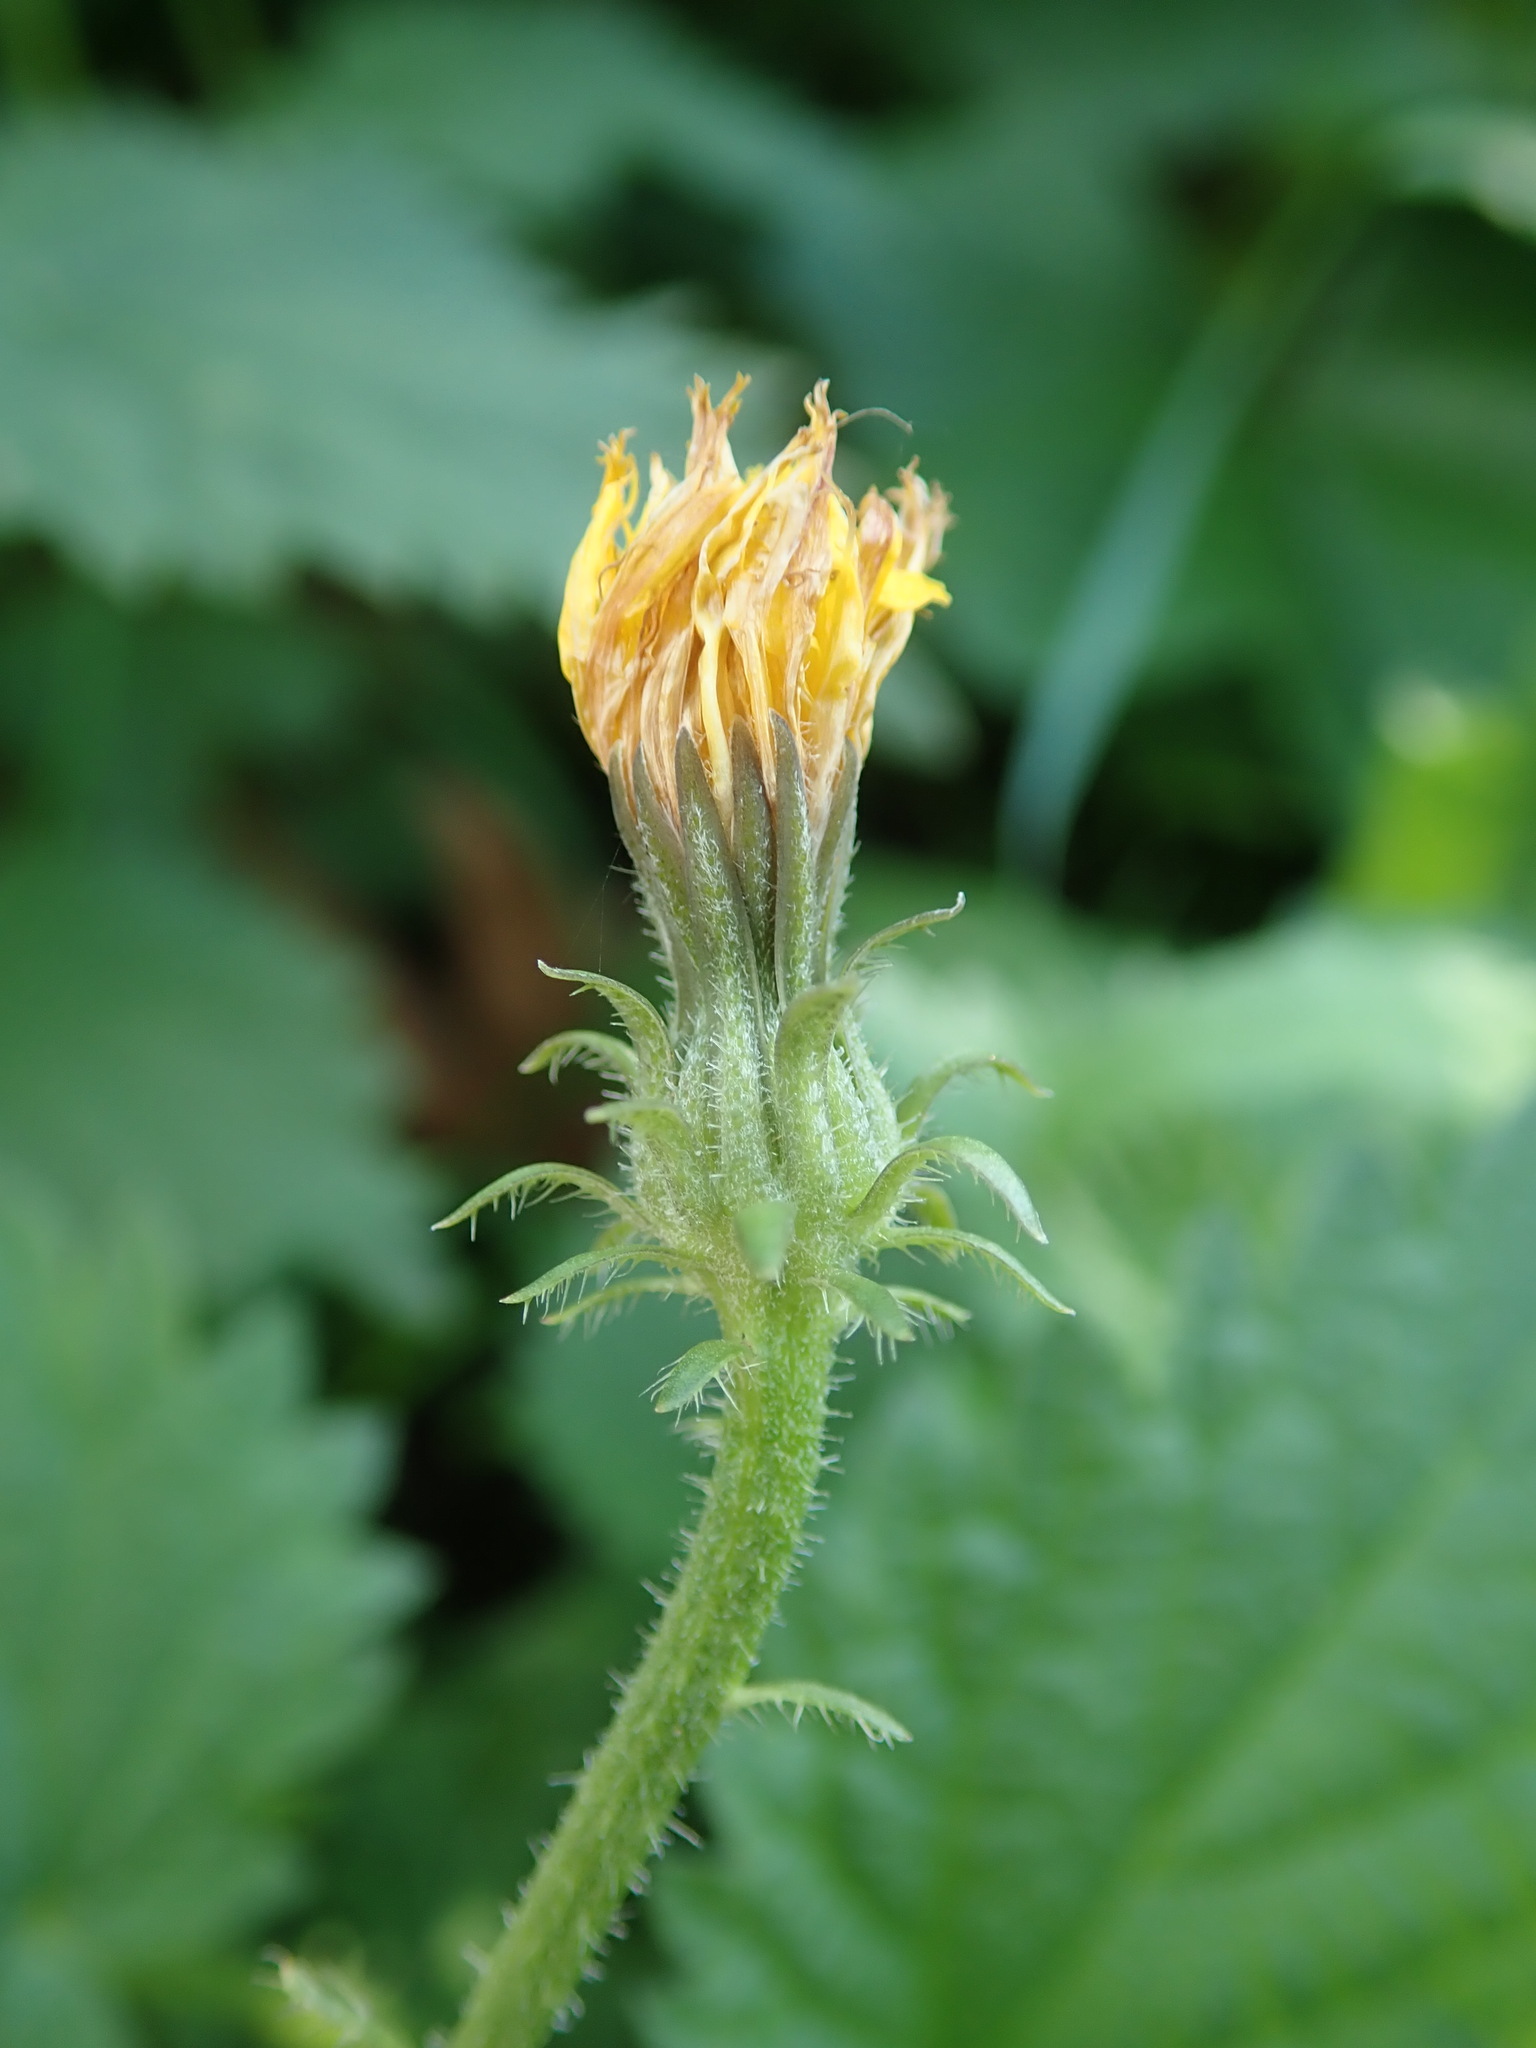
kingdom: Plantae
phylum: Tracheophyta
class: Magnoliopsida
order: Asterales
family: Asteraceae
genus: Picris
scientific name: Picris hieracioides
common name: Hawkweed oxtongue
